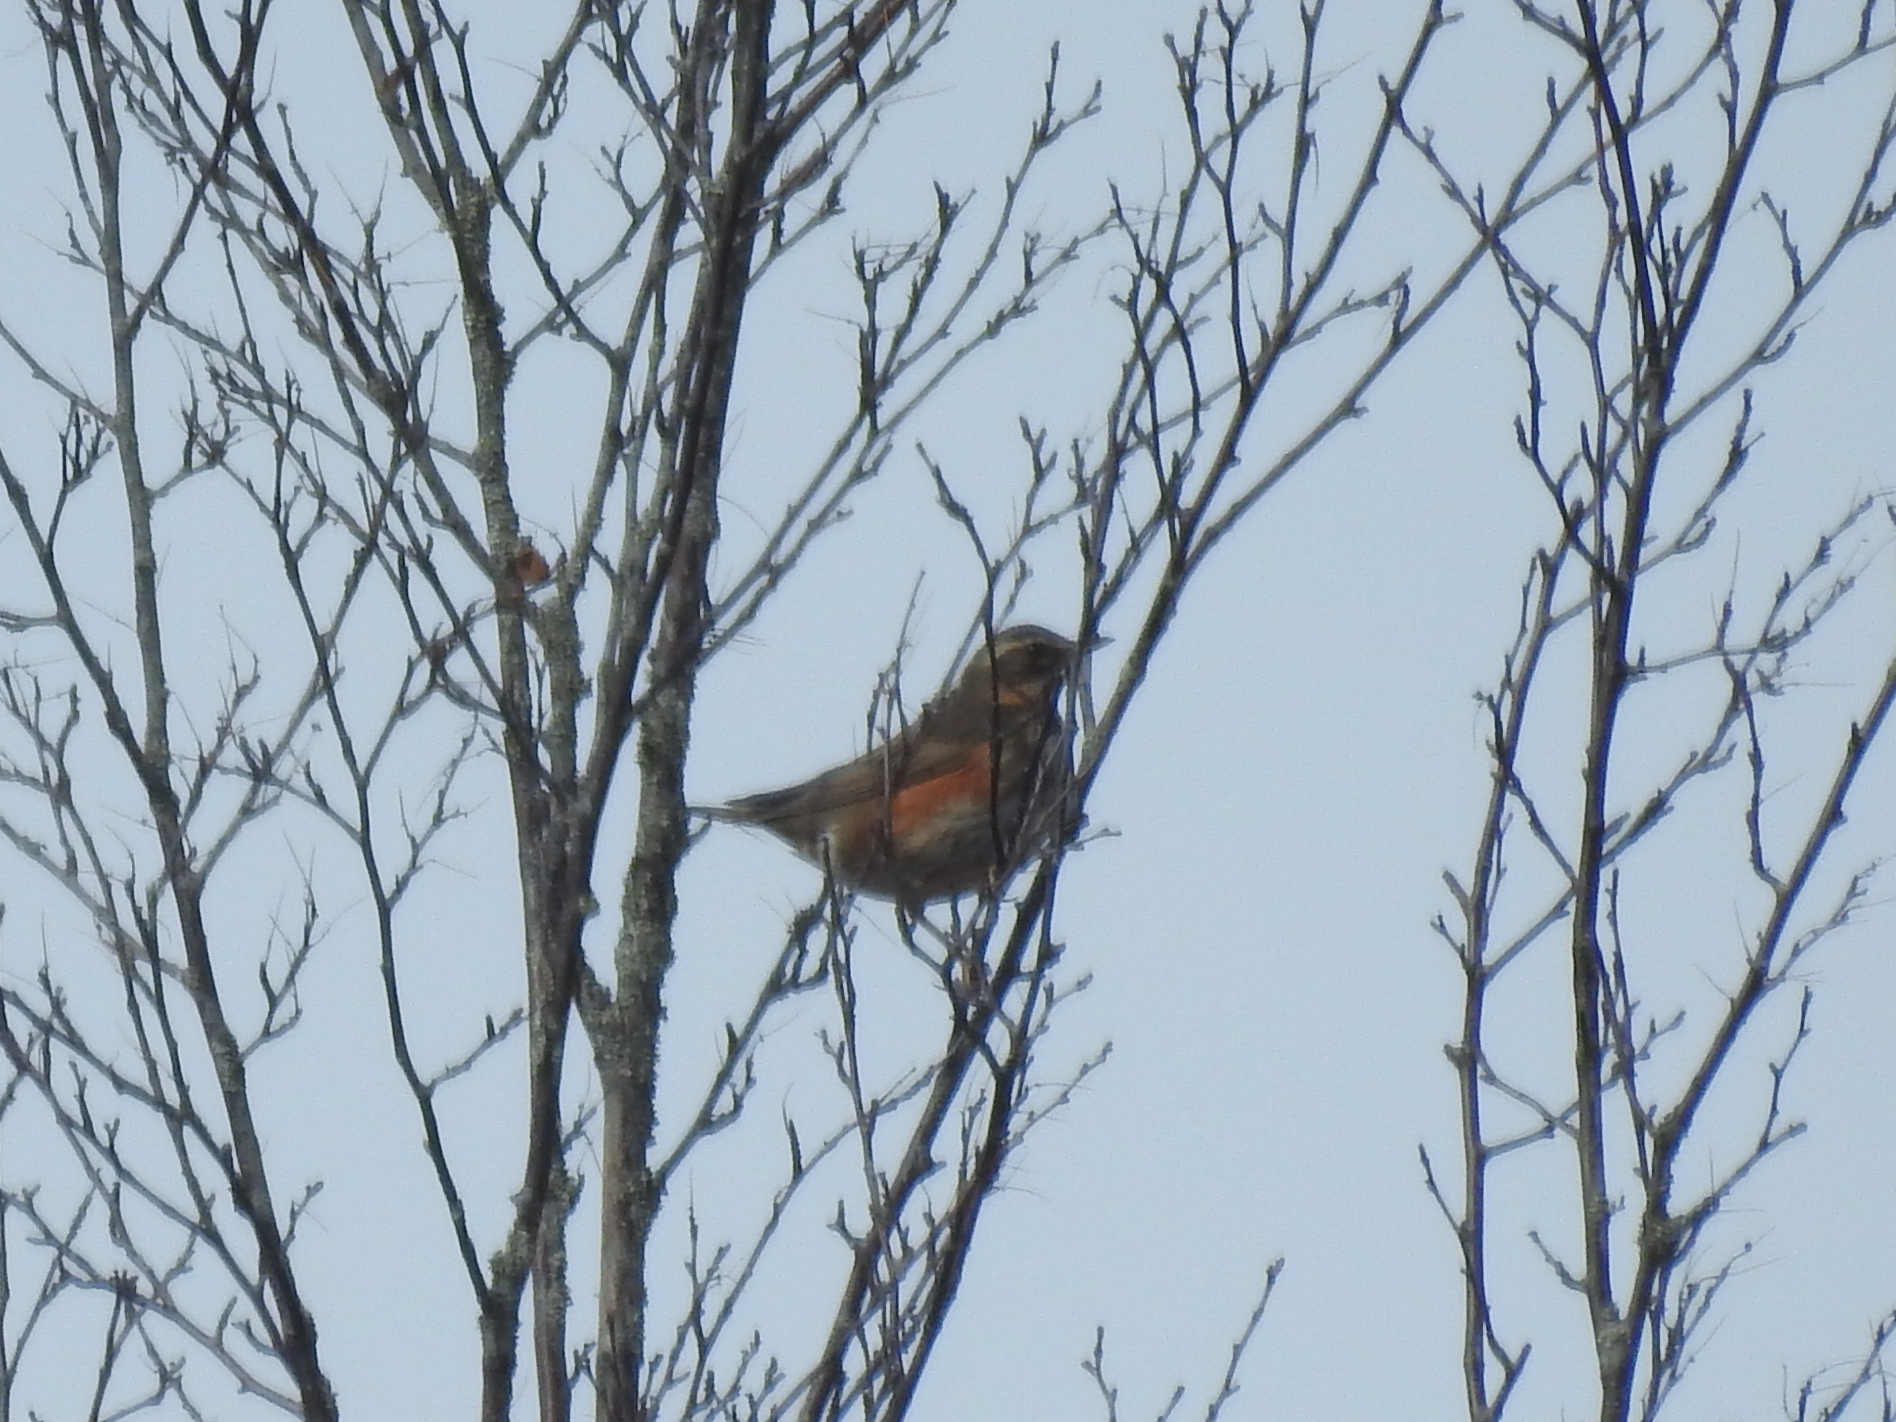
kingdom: Animalia
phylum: Chordata
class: Aves
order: Passeriformes
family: Turdidae
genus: Turdus
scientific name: Turdus iliacus
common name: Redwing
